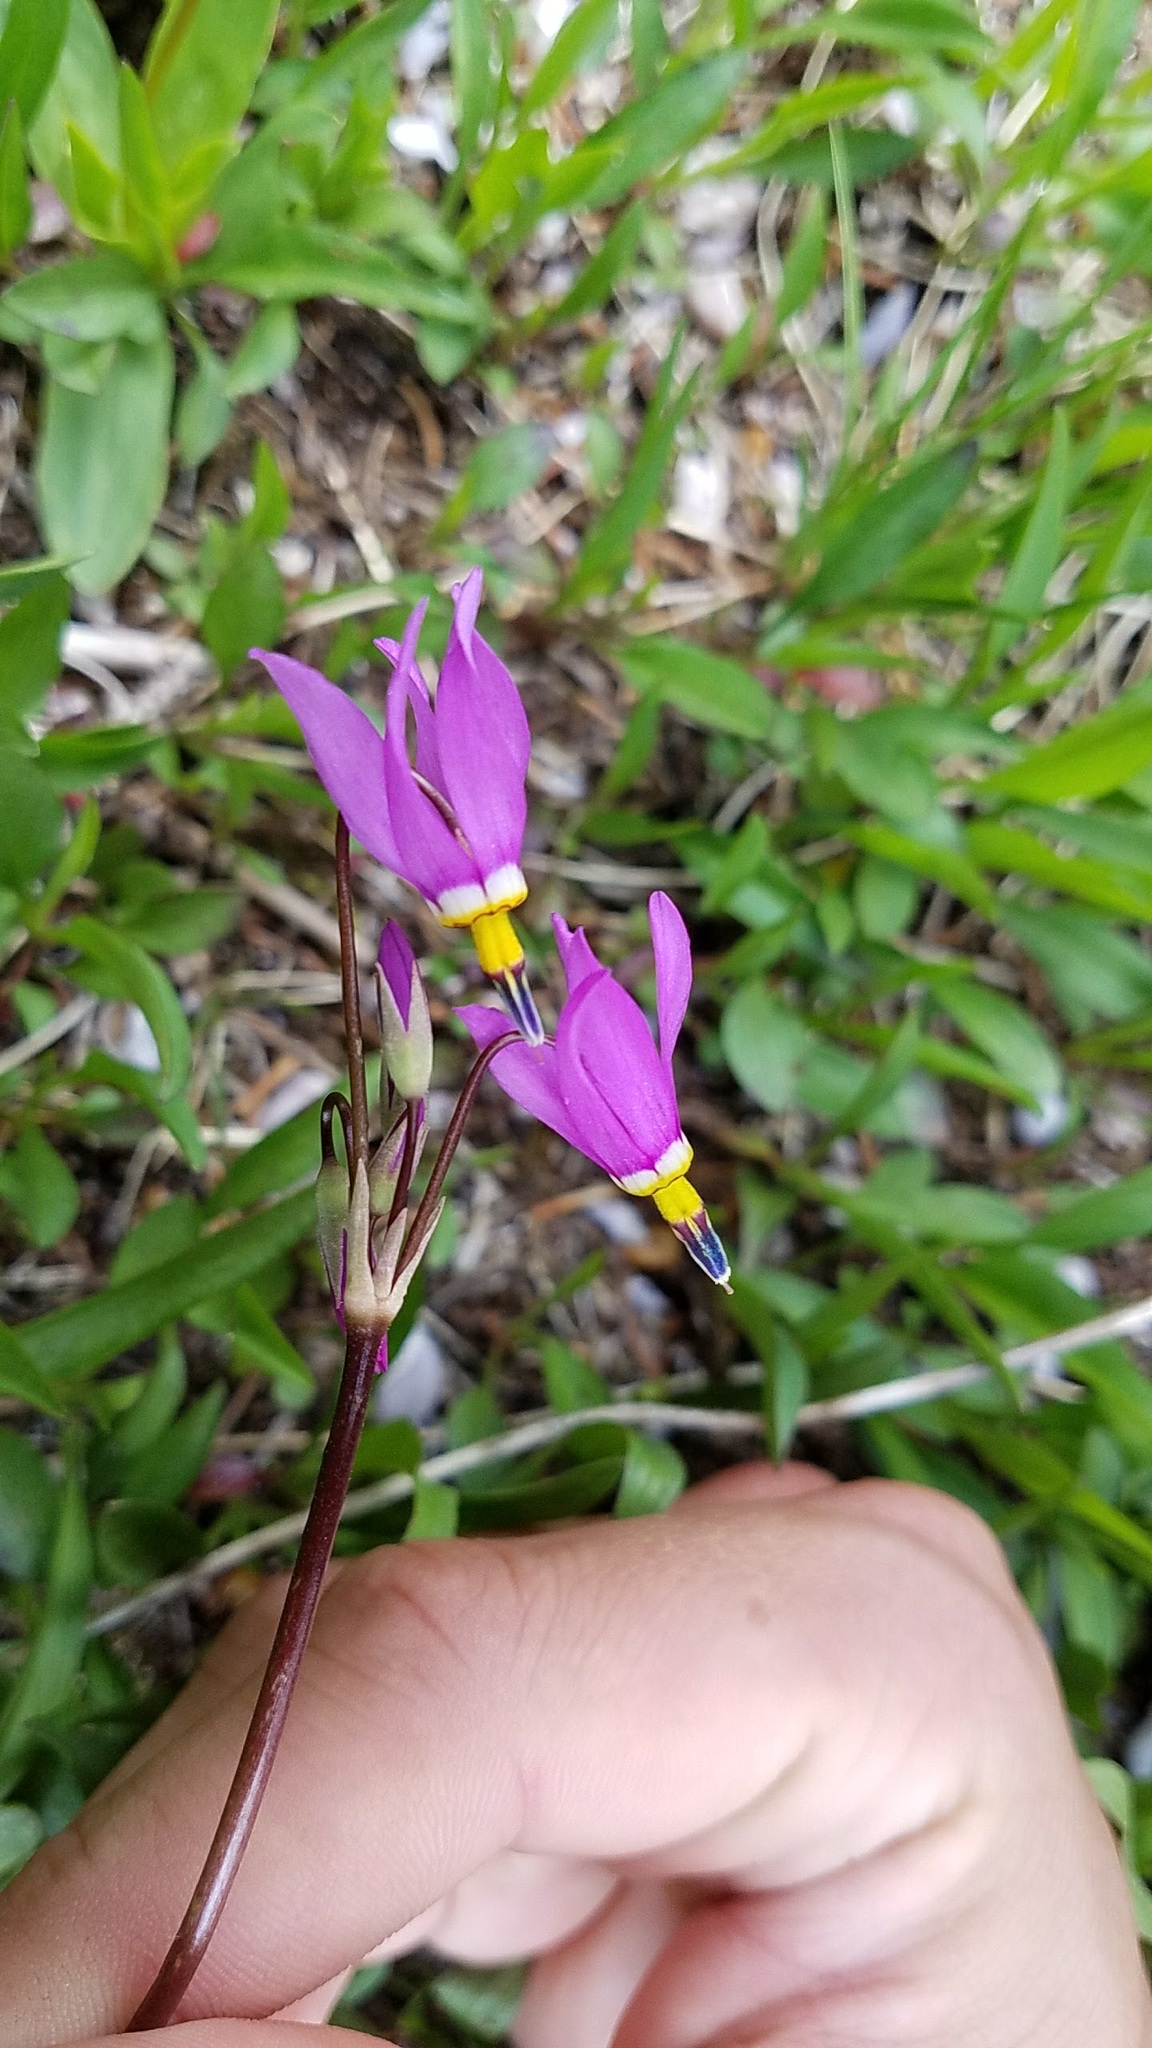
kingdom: Plantae
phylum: Tracheophyta
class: Magnoliopsida
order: Ericales
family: Primulaceae
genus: Dodecatheon
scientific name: Dodecatheon pulchellum
